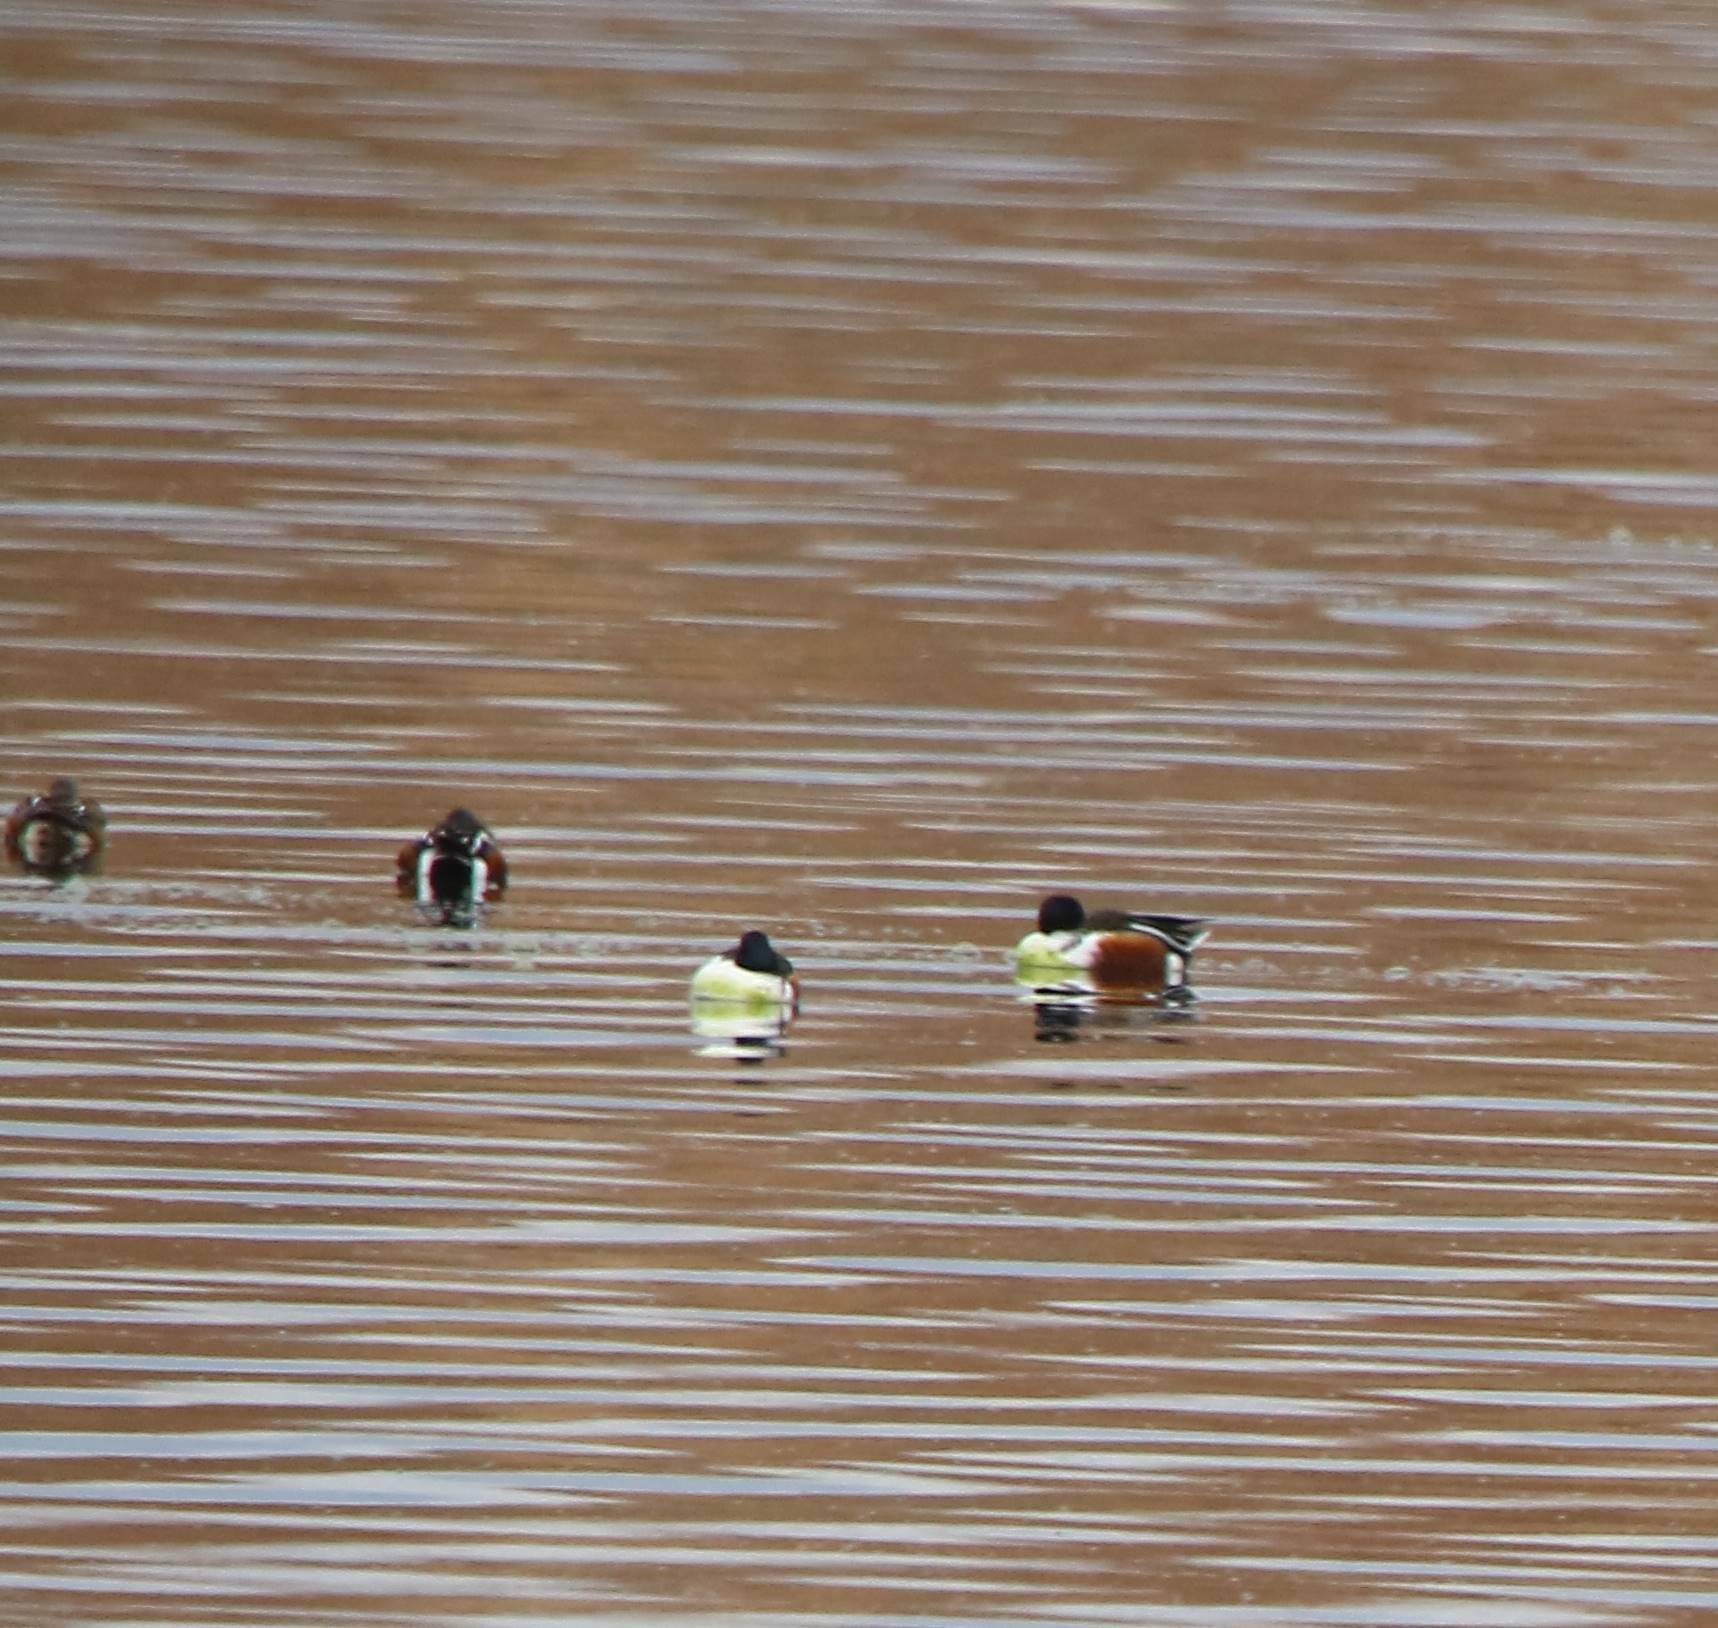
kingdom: Animalia
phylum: Chordata
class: Aves
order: Anseriformes
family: Anatidae
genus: Spatula
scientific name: Spatula clypeata
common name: Northern shoveler
